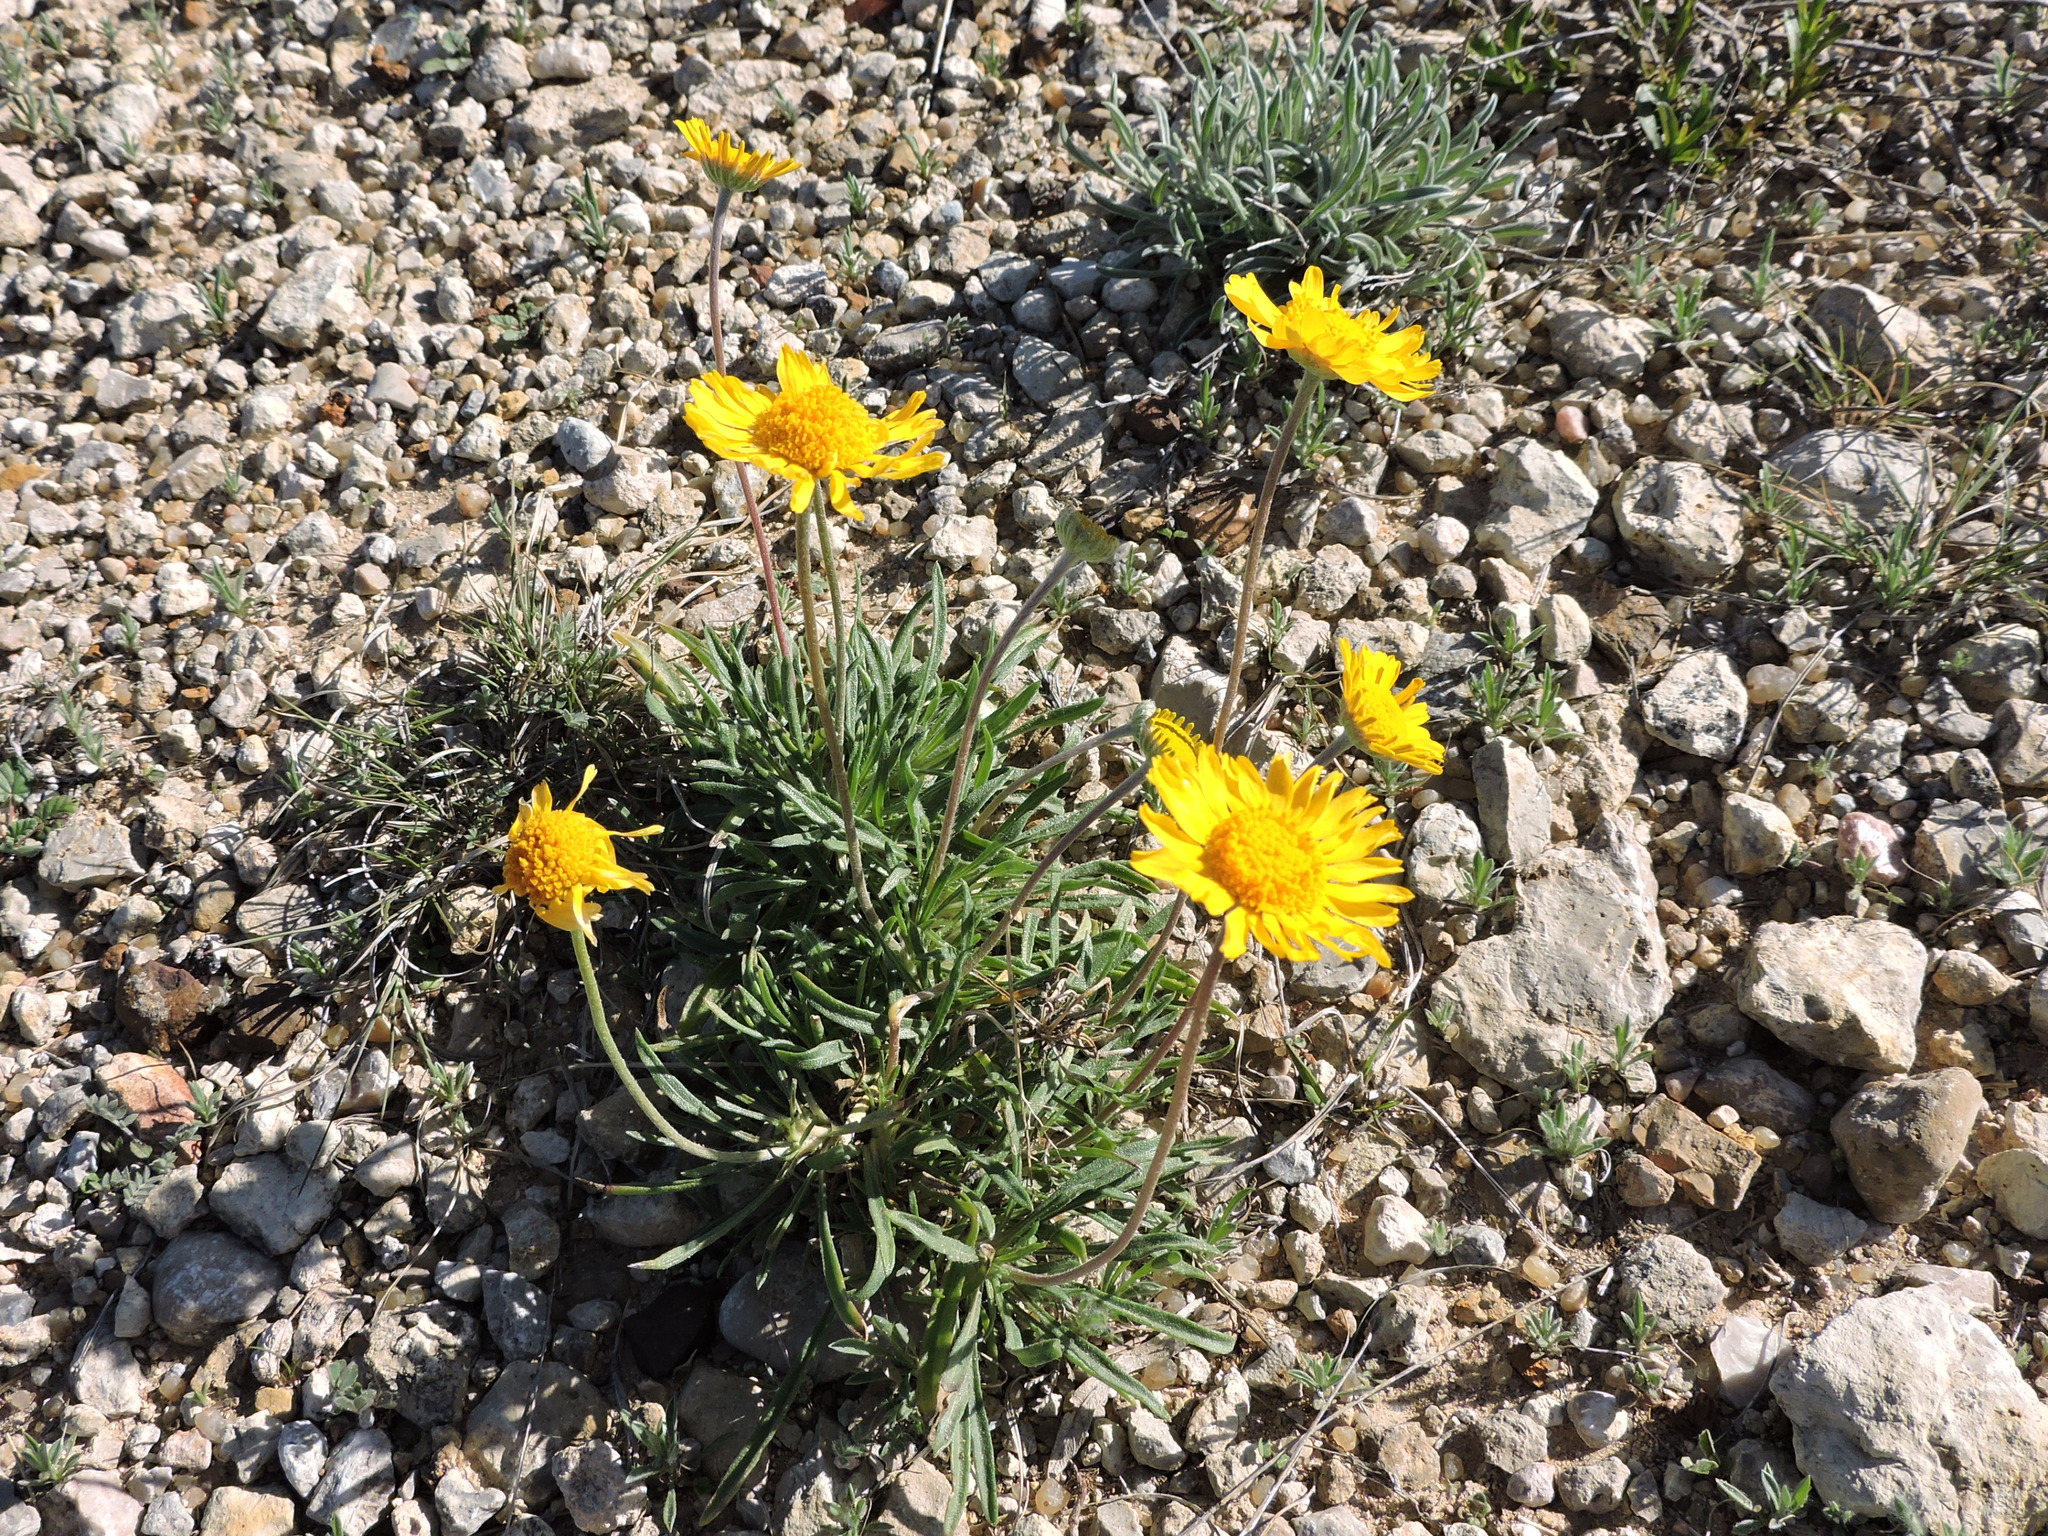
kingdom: Plantae
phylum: Tracheophyta
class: Magnoliopsida
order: Asterales
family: Asteraceae
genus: Tetraneuris
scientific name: Tetraneuris scaposa
